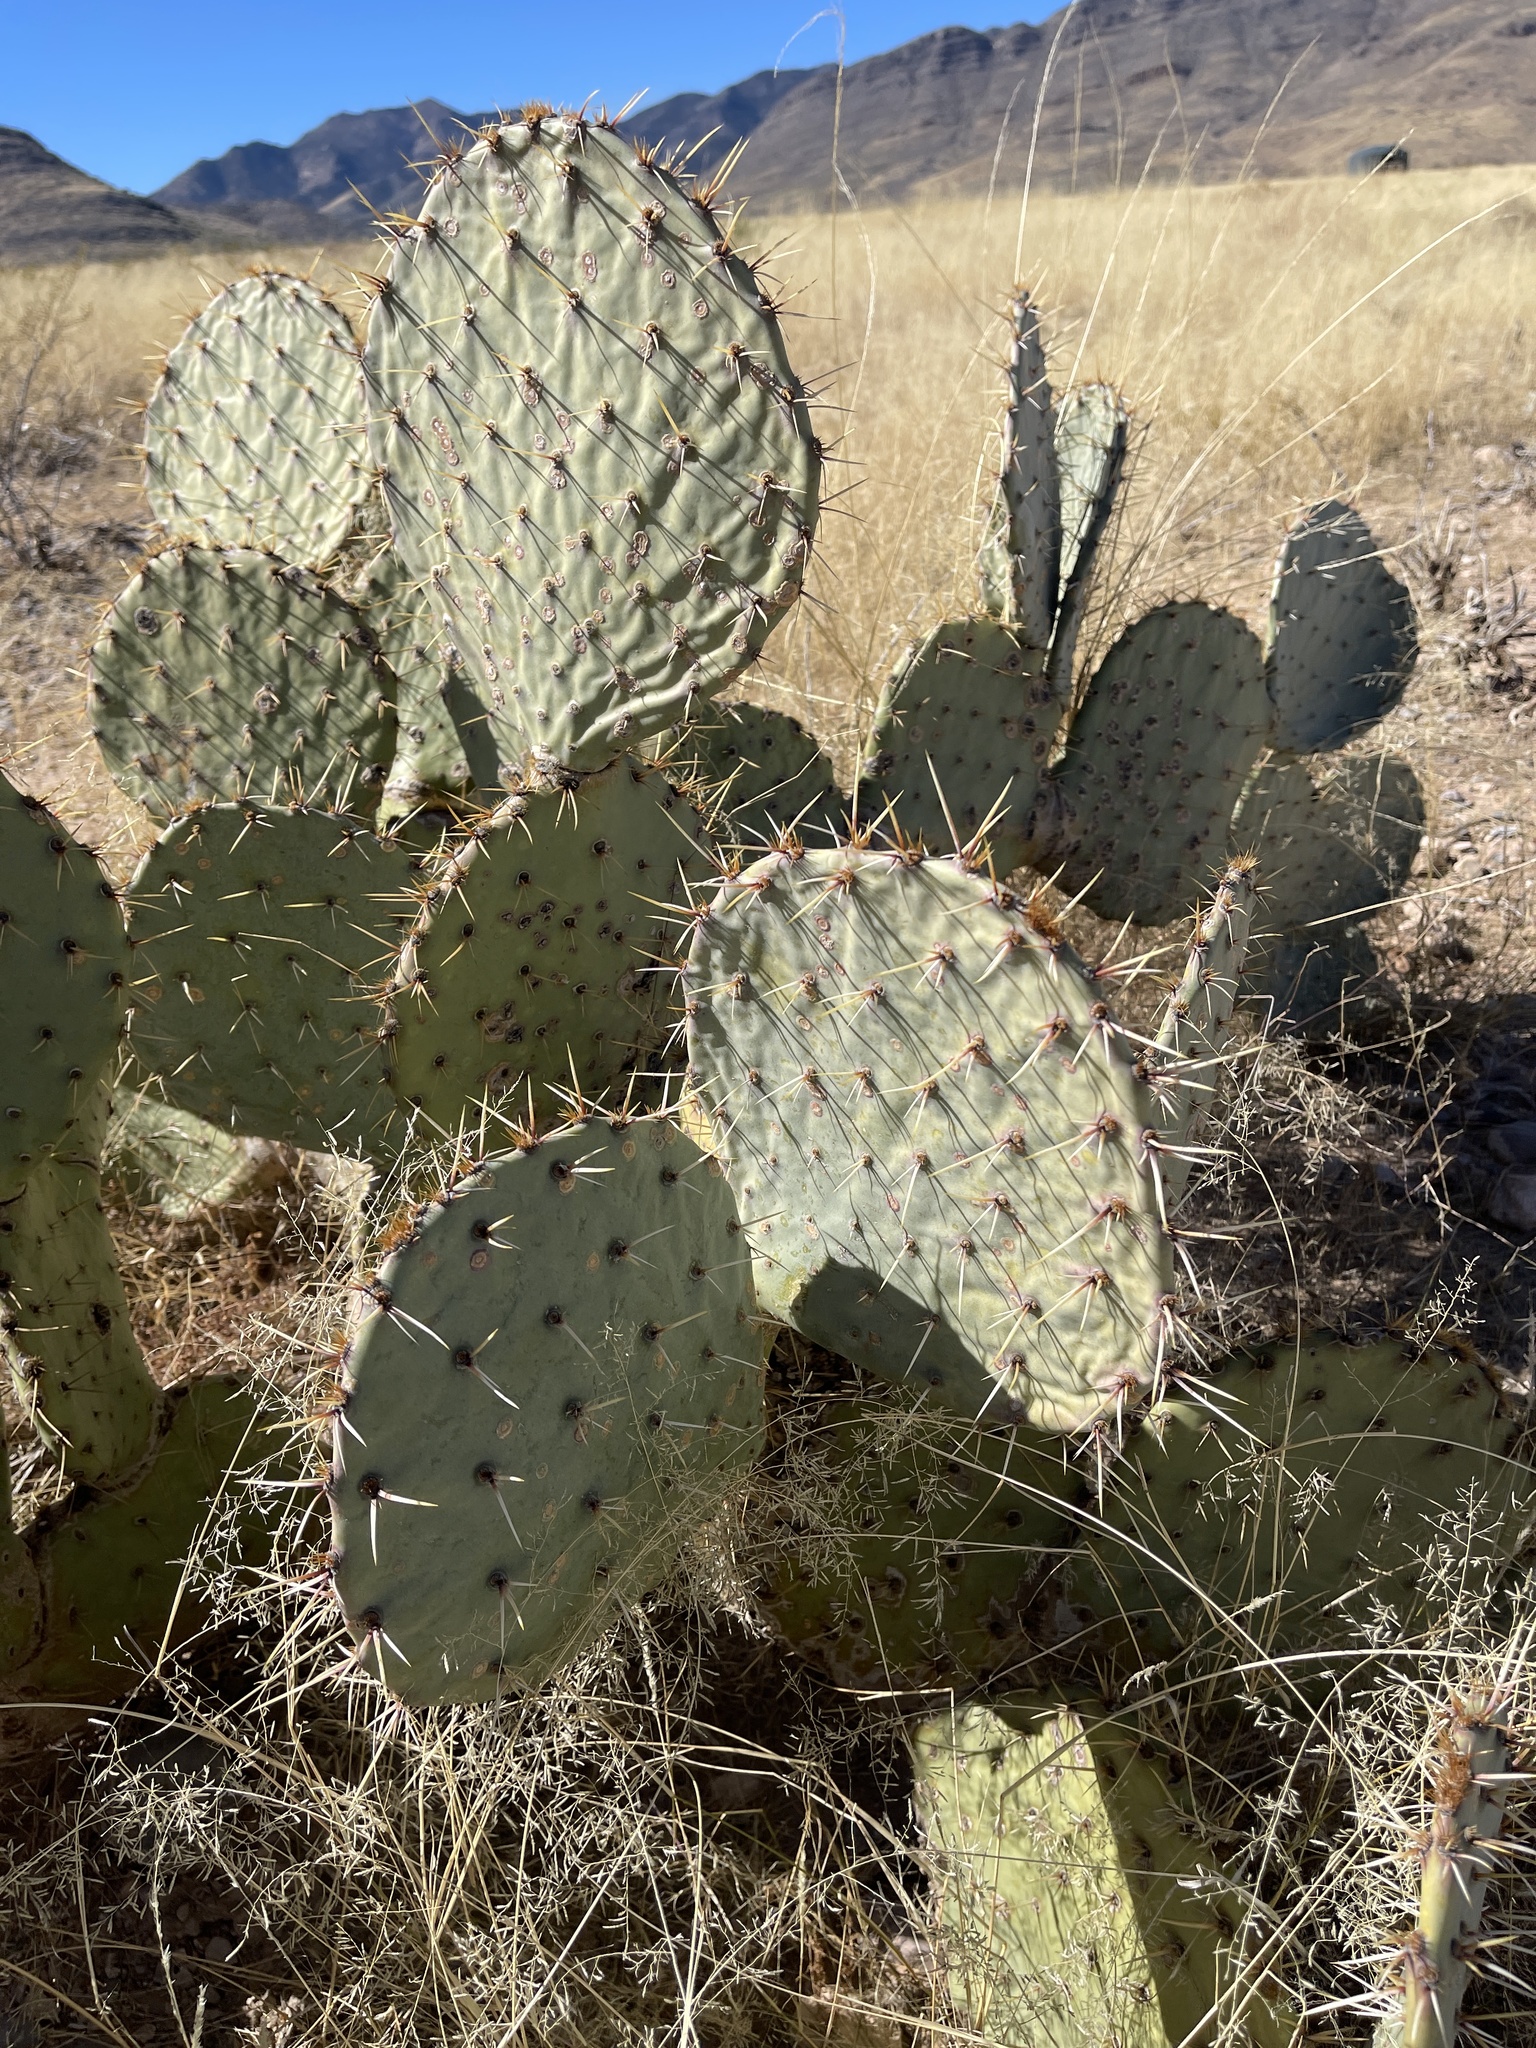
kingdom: Plantae
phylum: Tracheophyta
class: Magnoliopsida
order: Caryophyllales
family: Cactaceae
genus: Opuntia
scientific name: Opuntia engelmannii
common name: Cactus-apple
